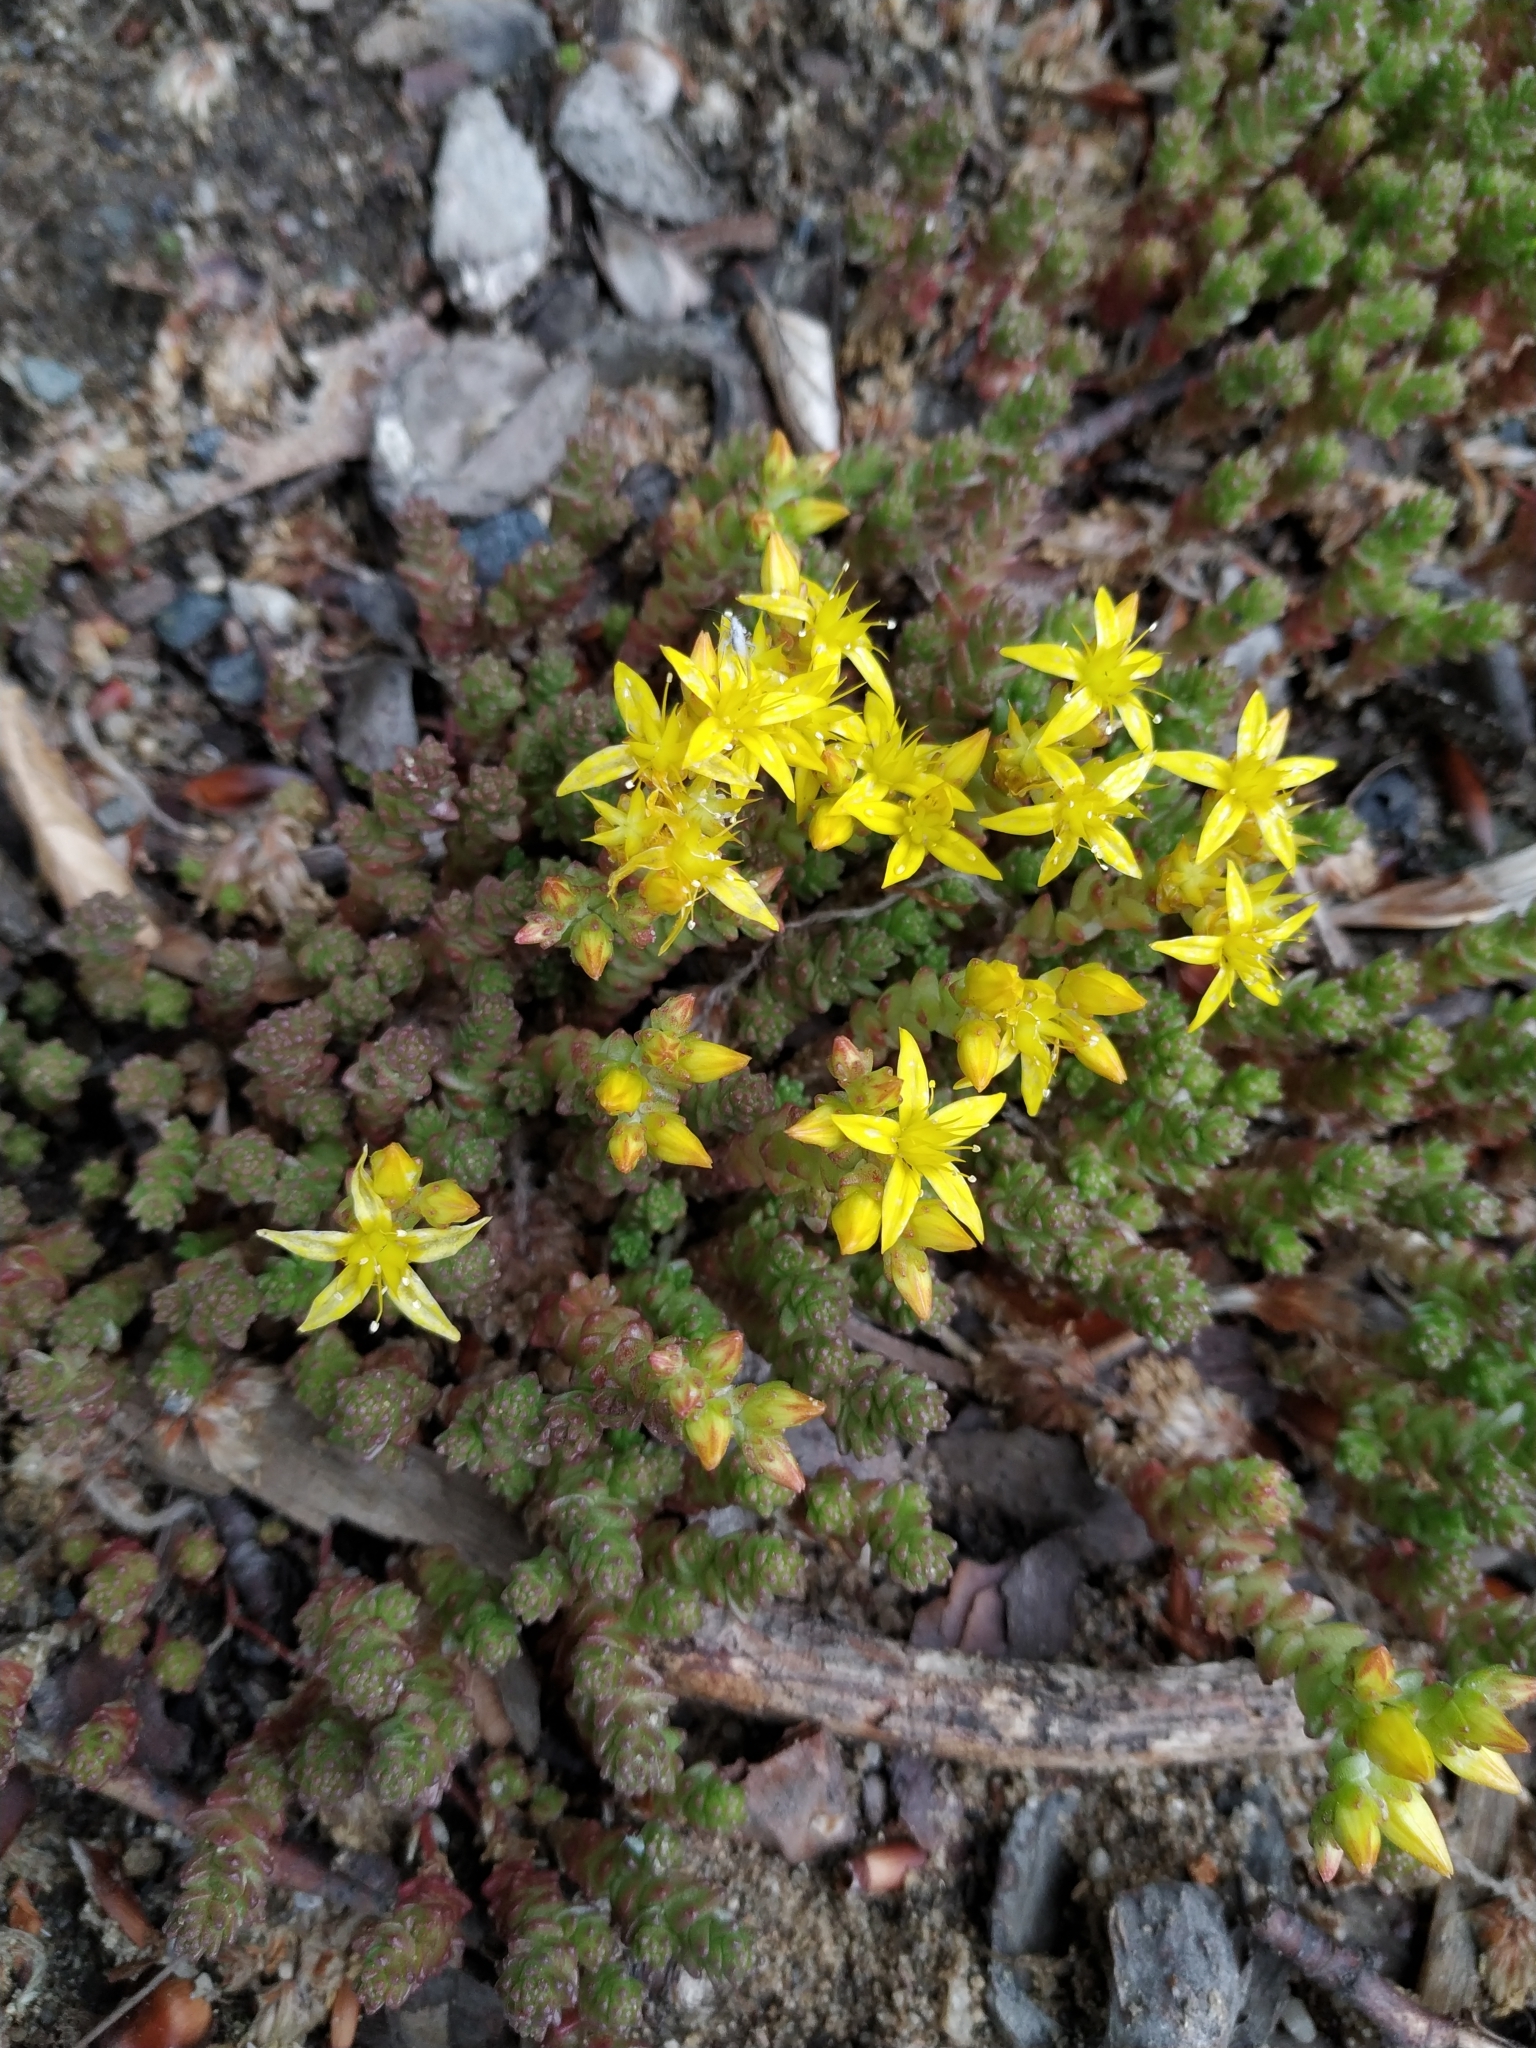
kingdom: Plantae
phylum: Tracheophyta
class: Magnoliopsida
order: Saxifragales
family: Crassulaceae
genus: Sedum
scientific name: Sedum acre
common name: Biting stonecrop
